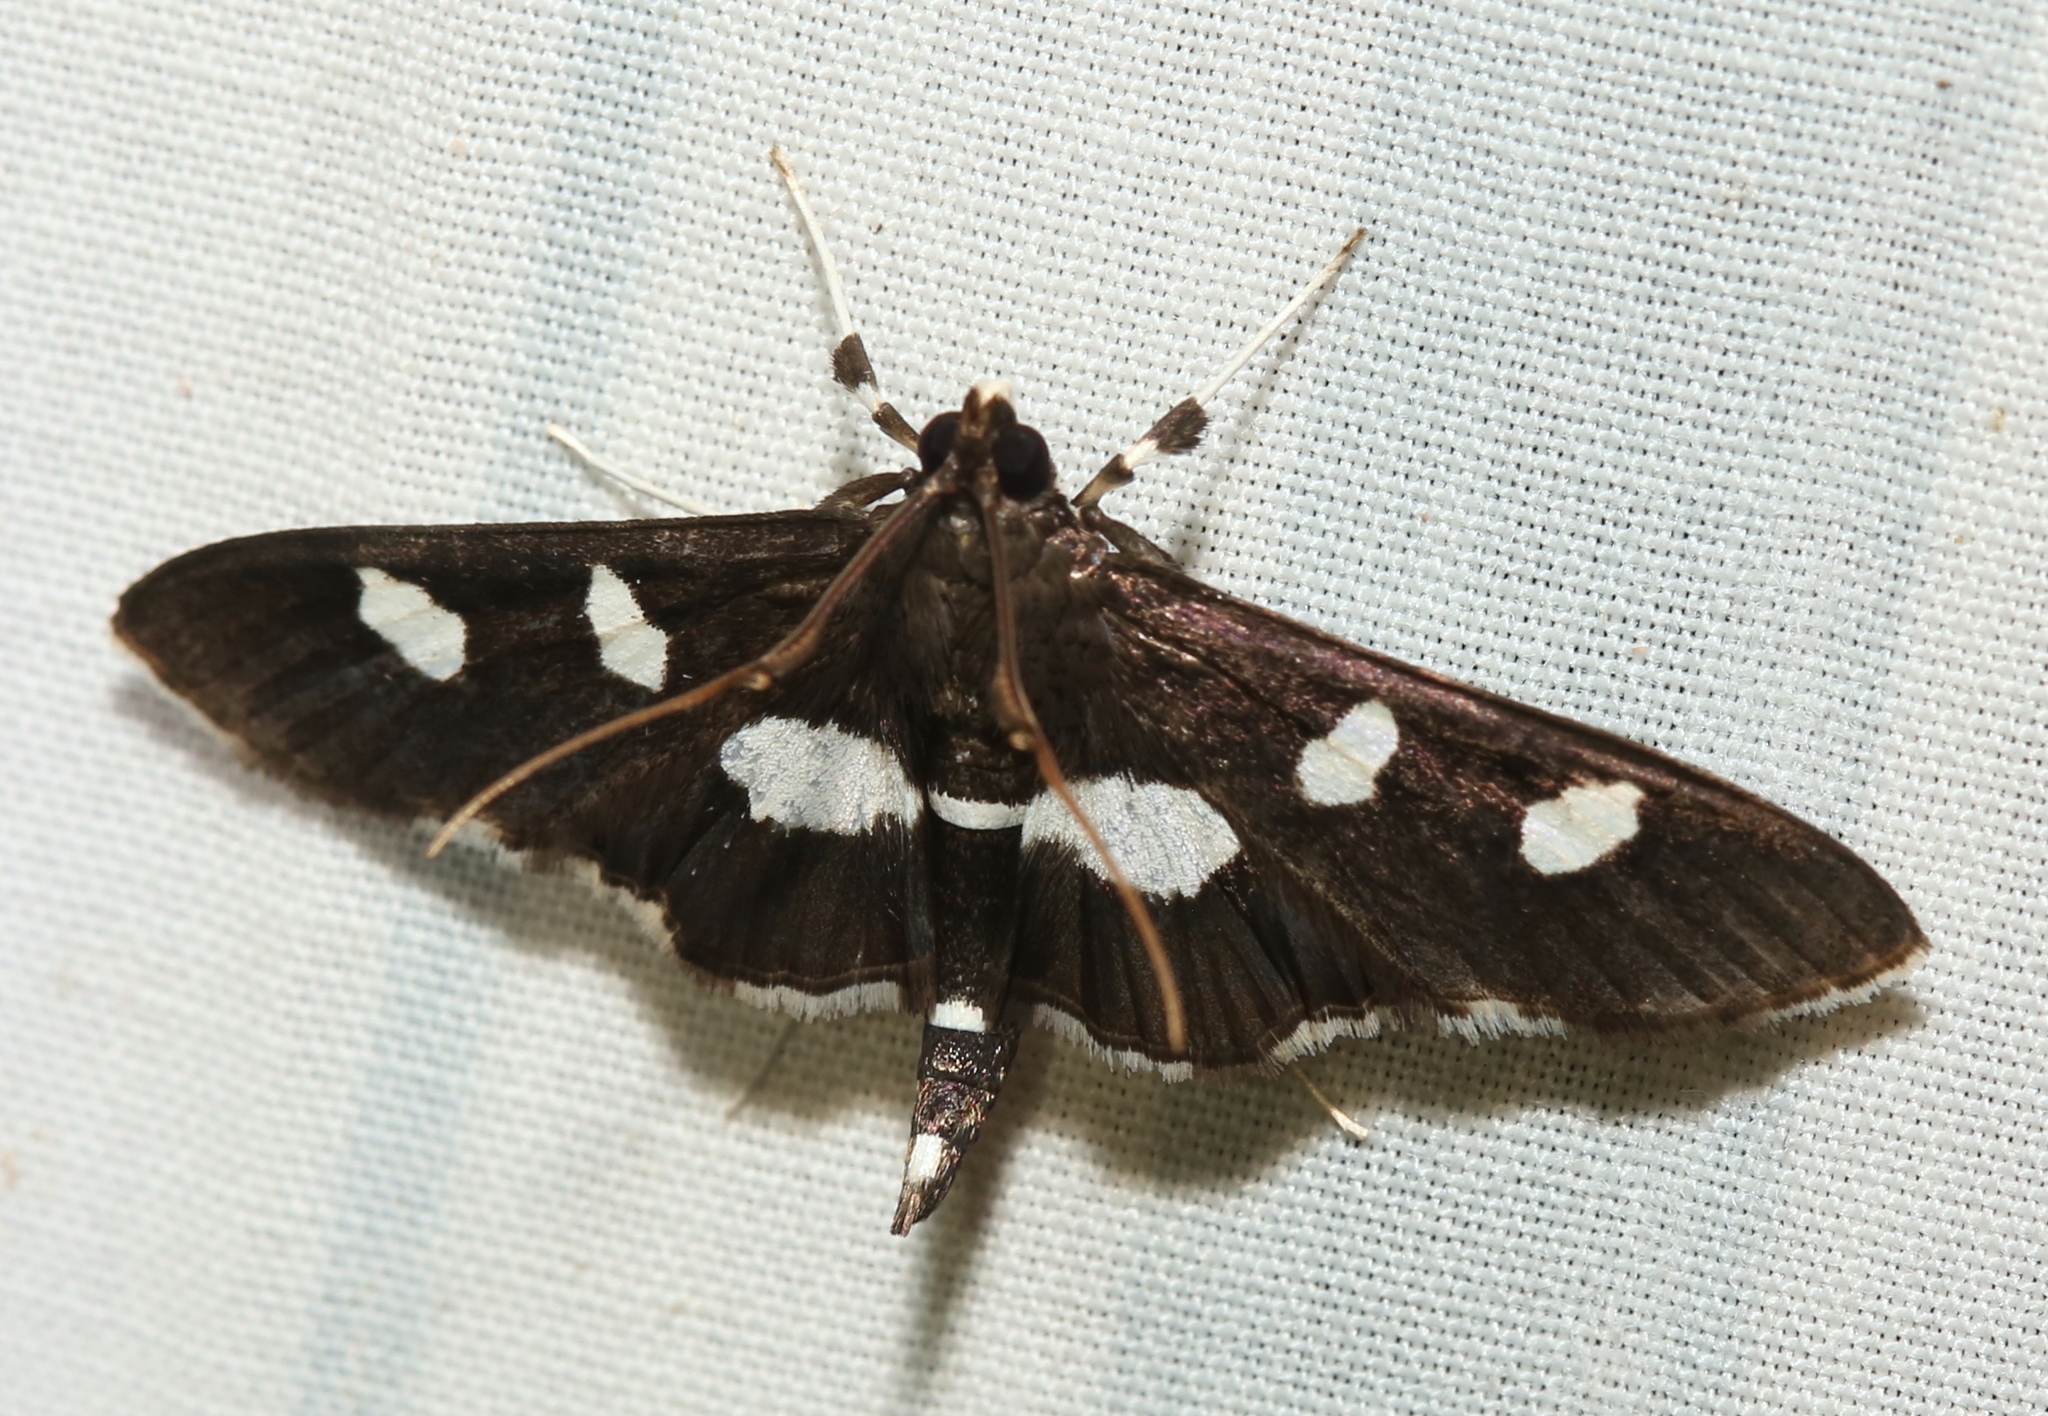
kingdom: Animalia
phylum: Arthropoda
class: Insecta
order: Lepidoptera
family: Crambidae
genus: Desmia
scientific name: Desmia
